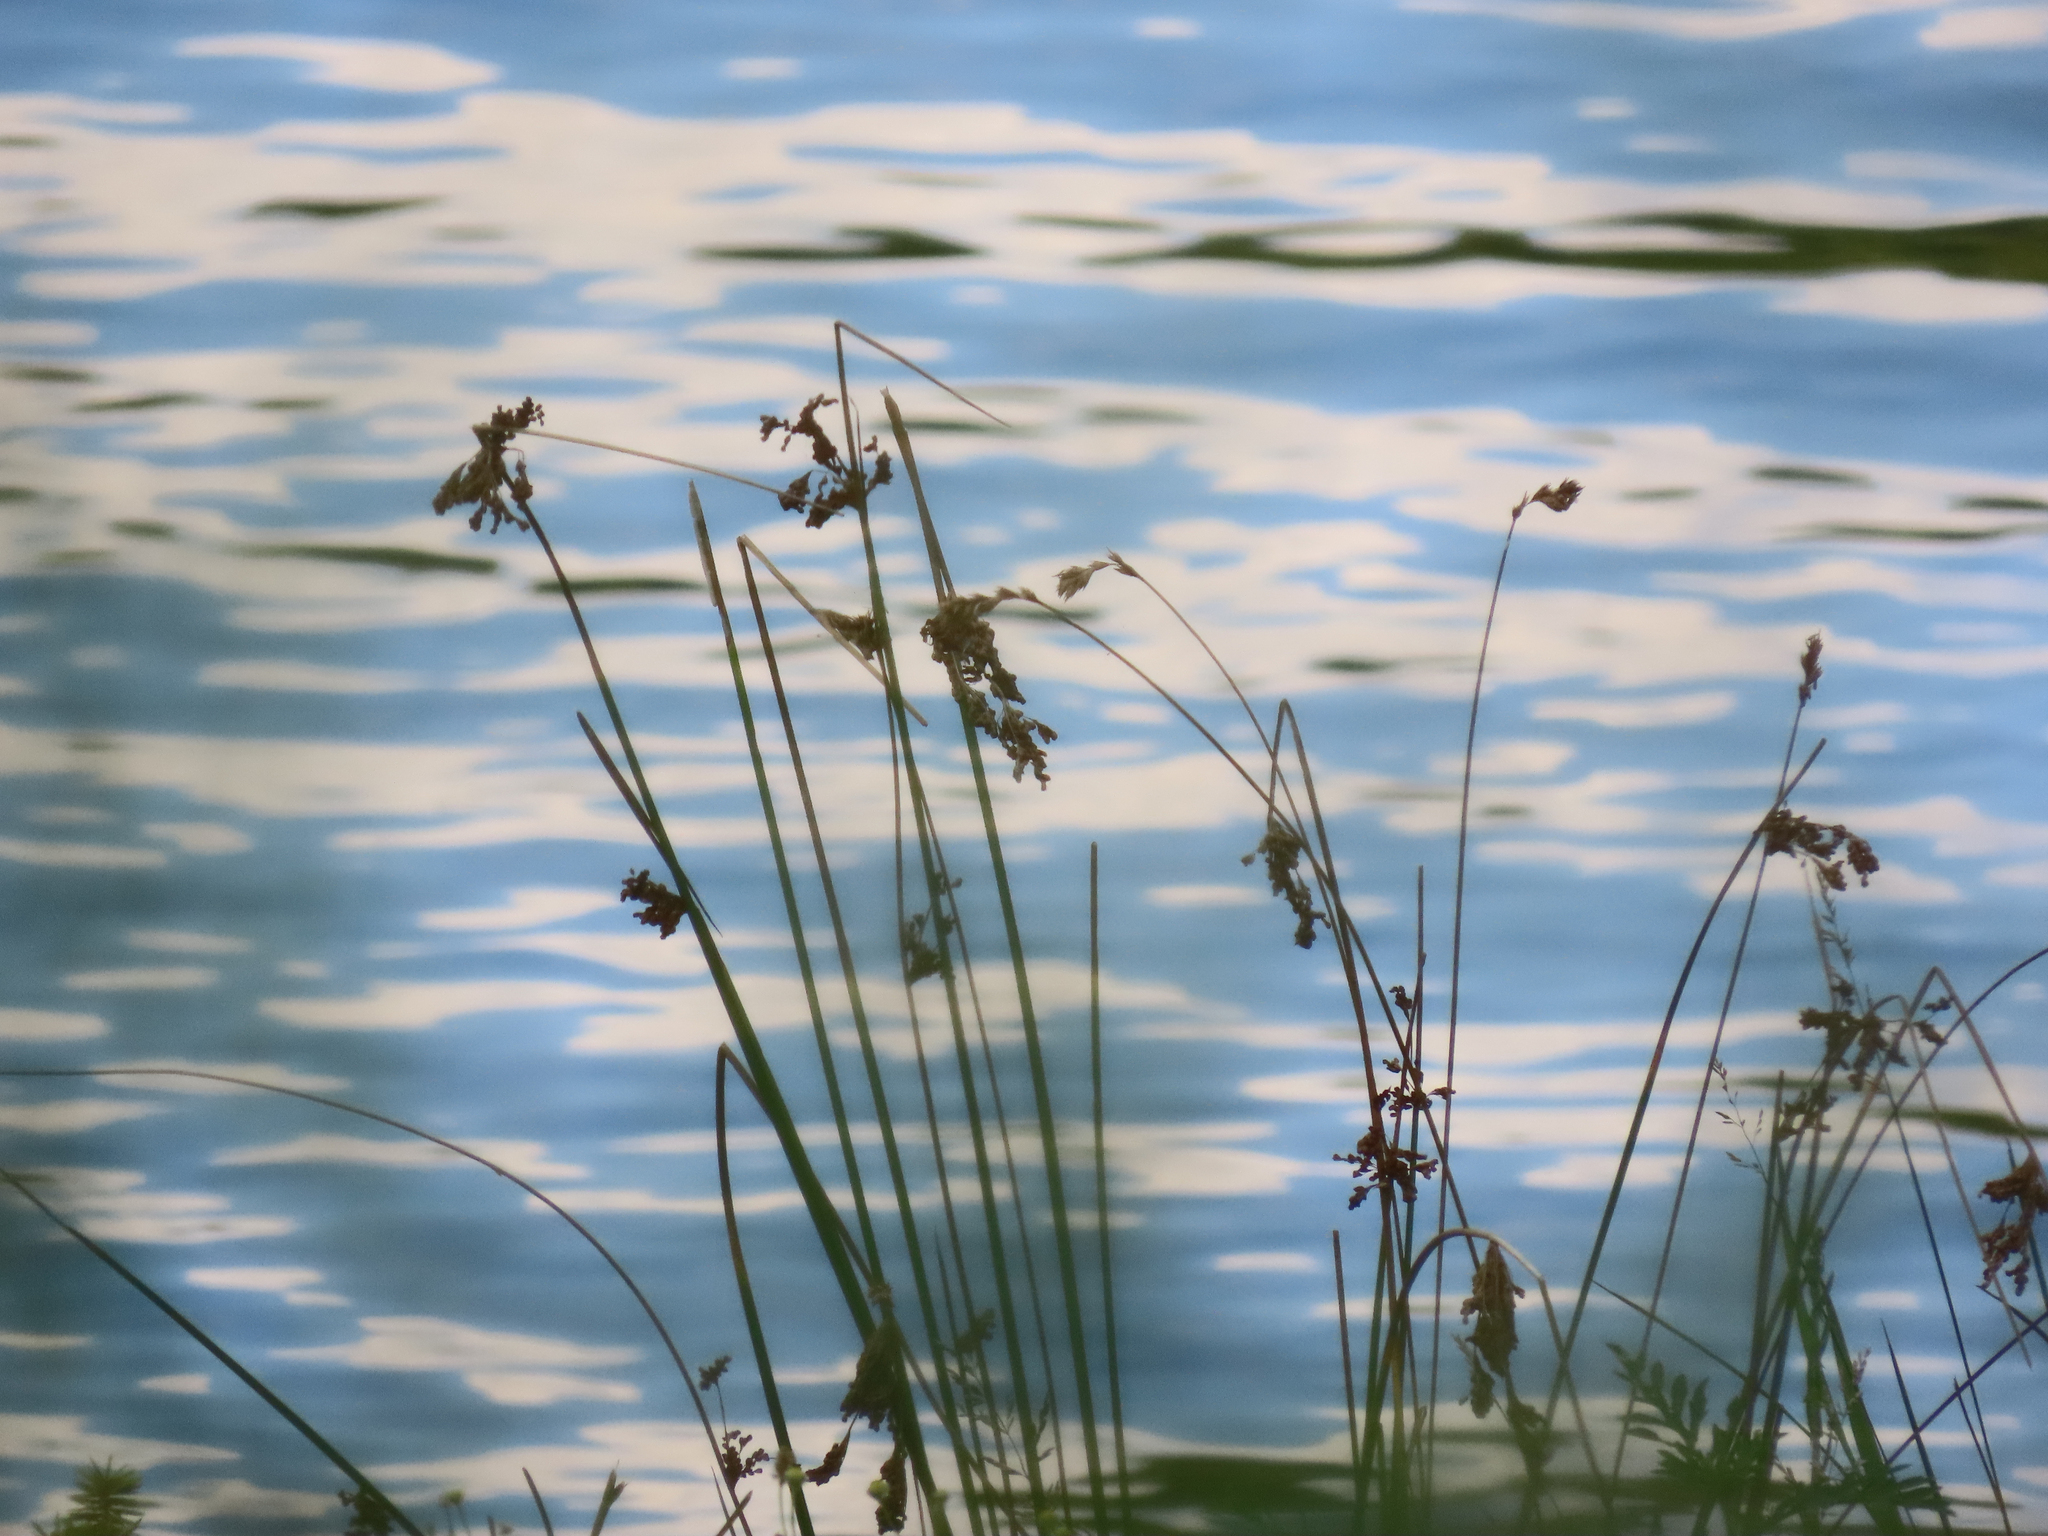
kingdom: Plantae
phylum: Tracheophyta
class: Liliopsida
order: Poales
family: Juncaceae
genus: Juncus
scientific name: Juncus effusus
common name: Soft rush
